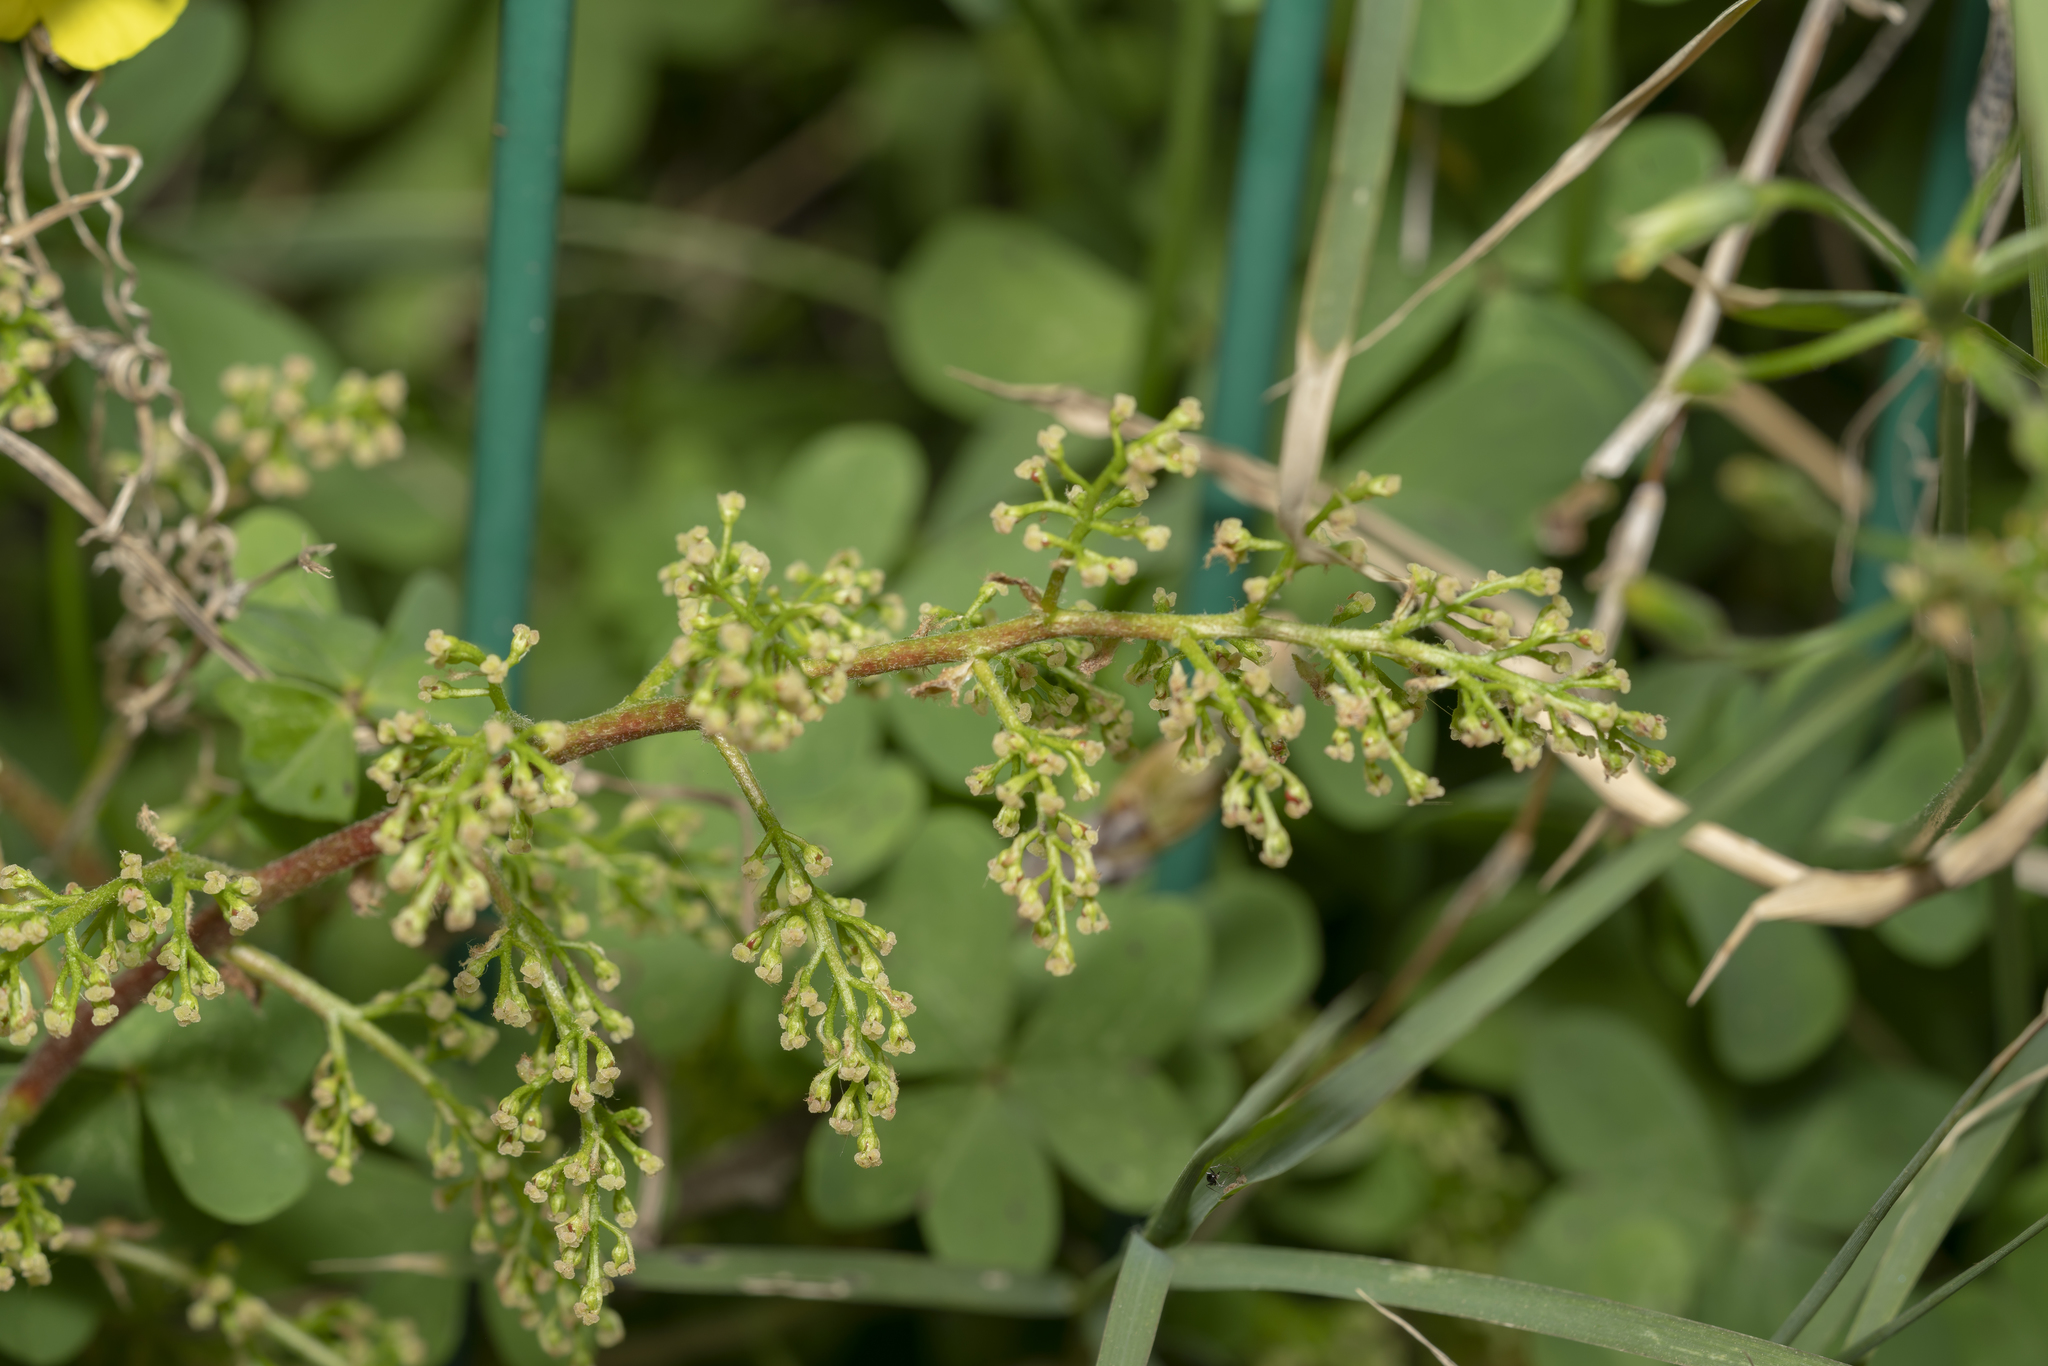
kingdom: Plantae
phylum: Tracheophyta
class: Magnoliopsida
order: Sapindales
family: Anacardiaceae
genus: Pistacia
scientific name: Pistacia atlantica
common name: Mt. atlas mastic tree
